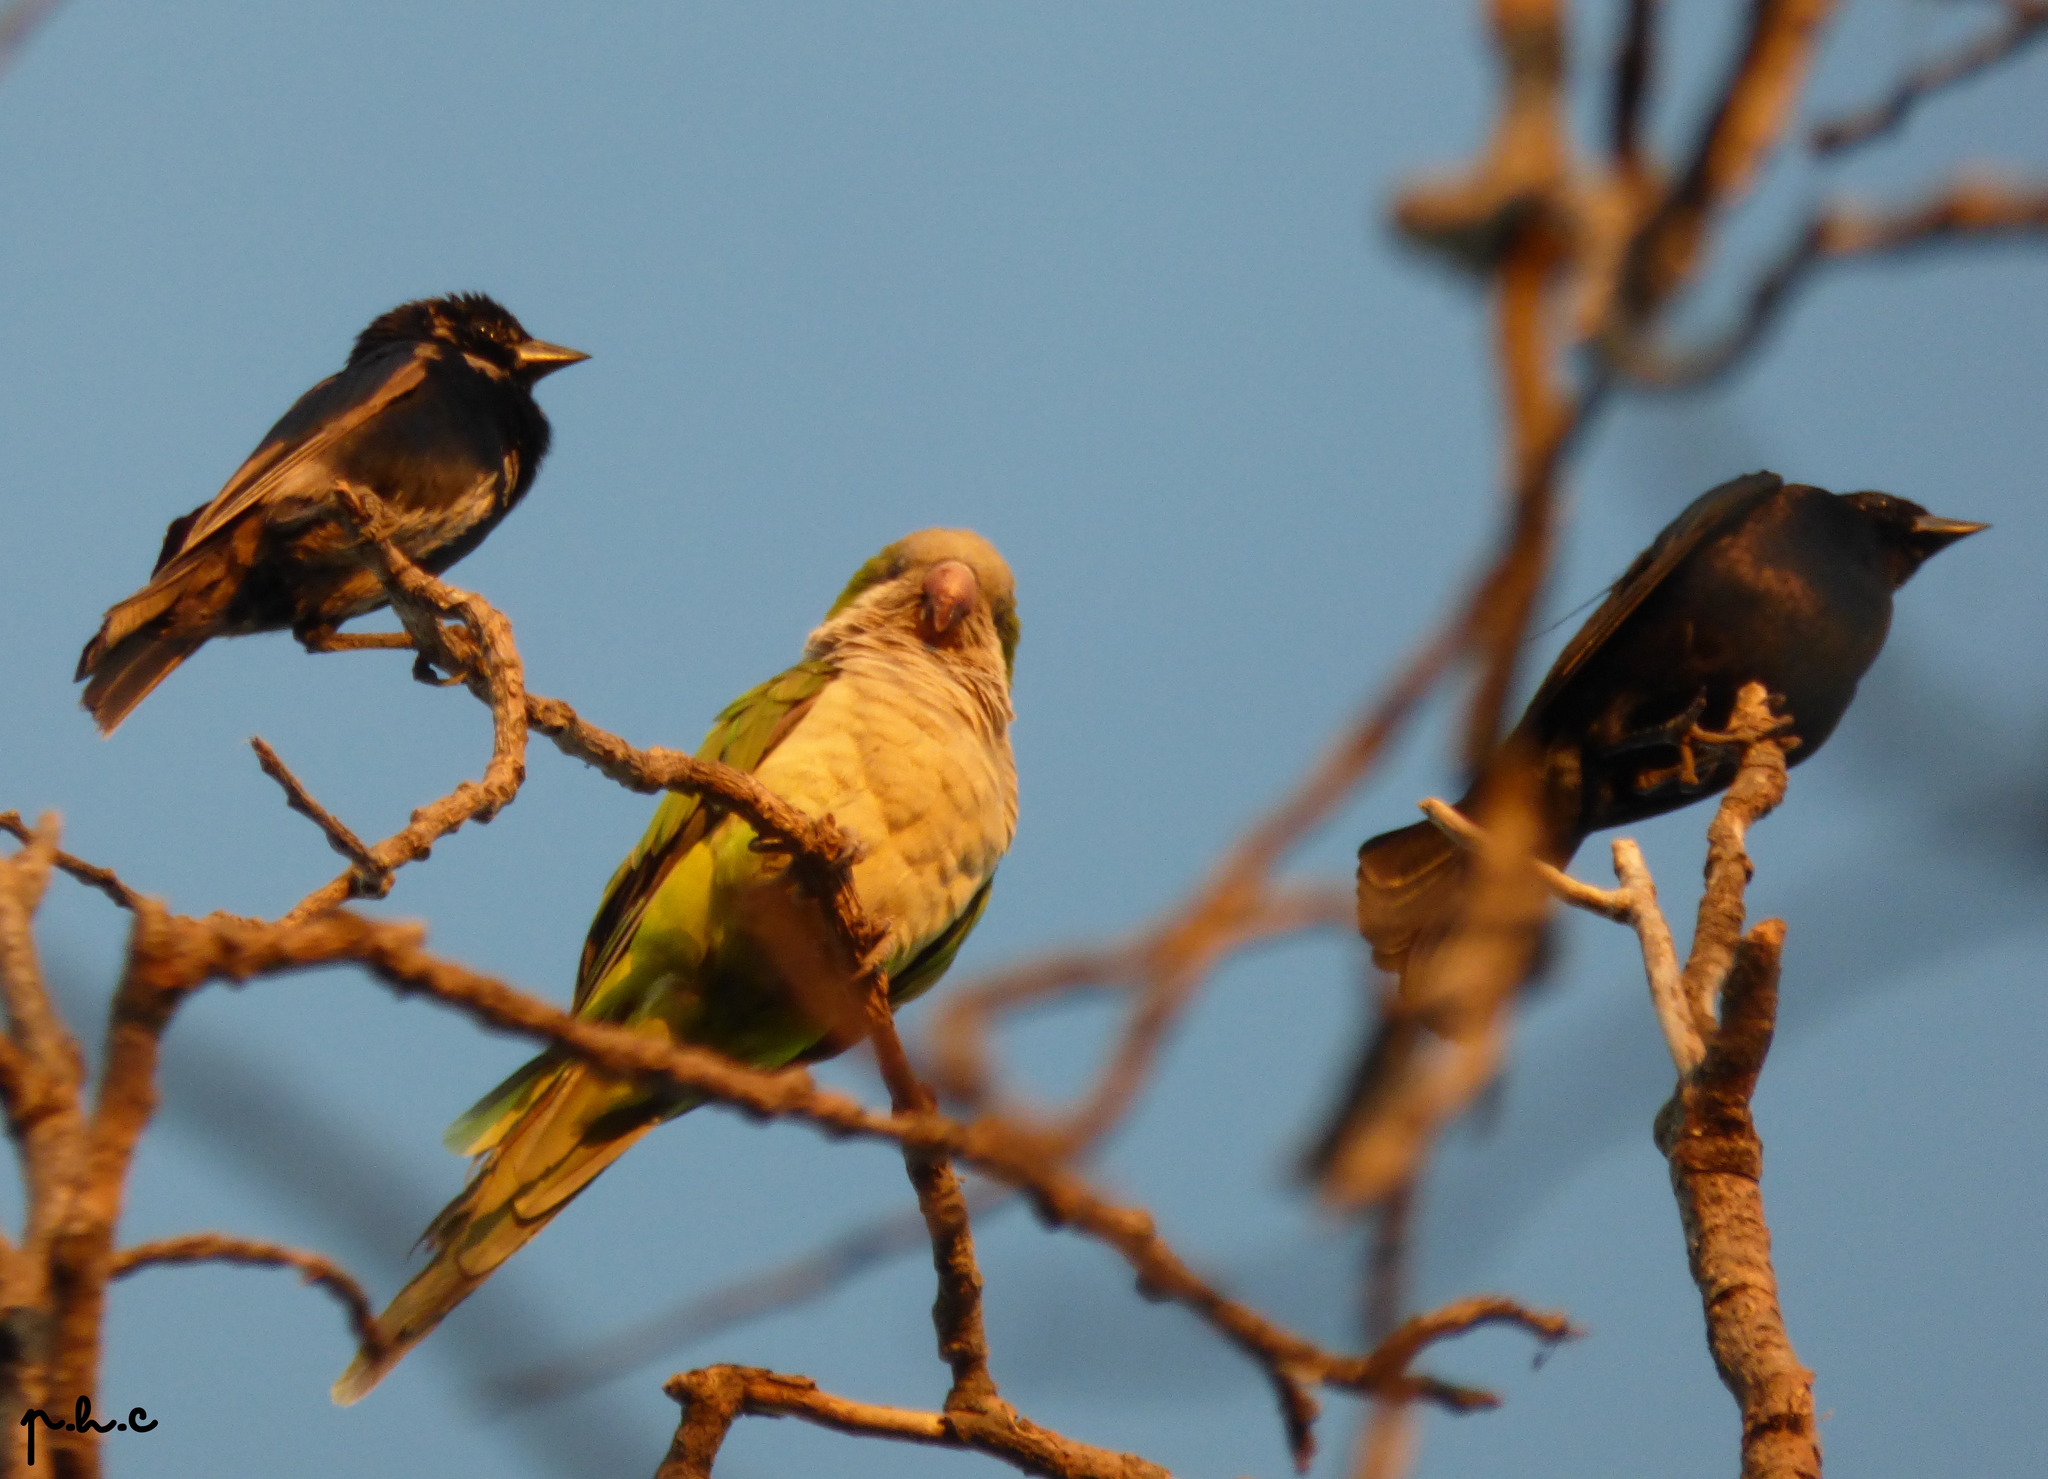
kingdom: Animalia
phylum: Chordata
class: Aves
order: Passeriformes
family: Icteridae
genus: Molothrus
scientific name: Molothrus bonariensis
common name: Shiny cowbird
